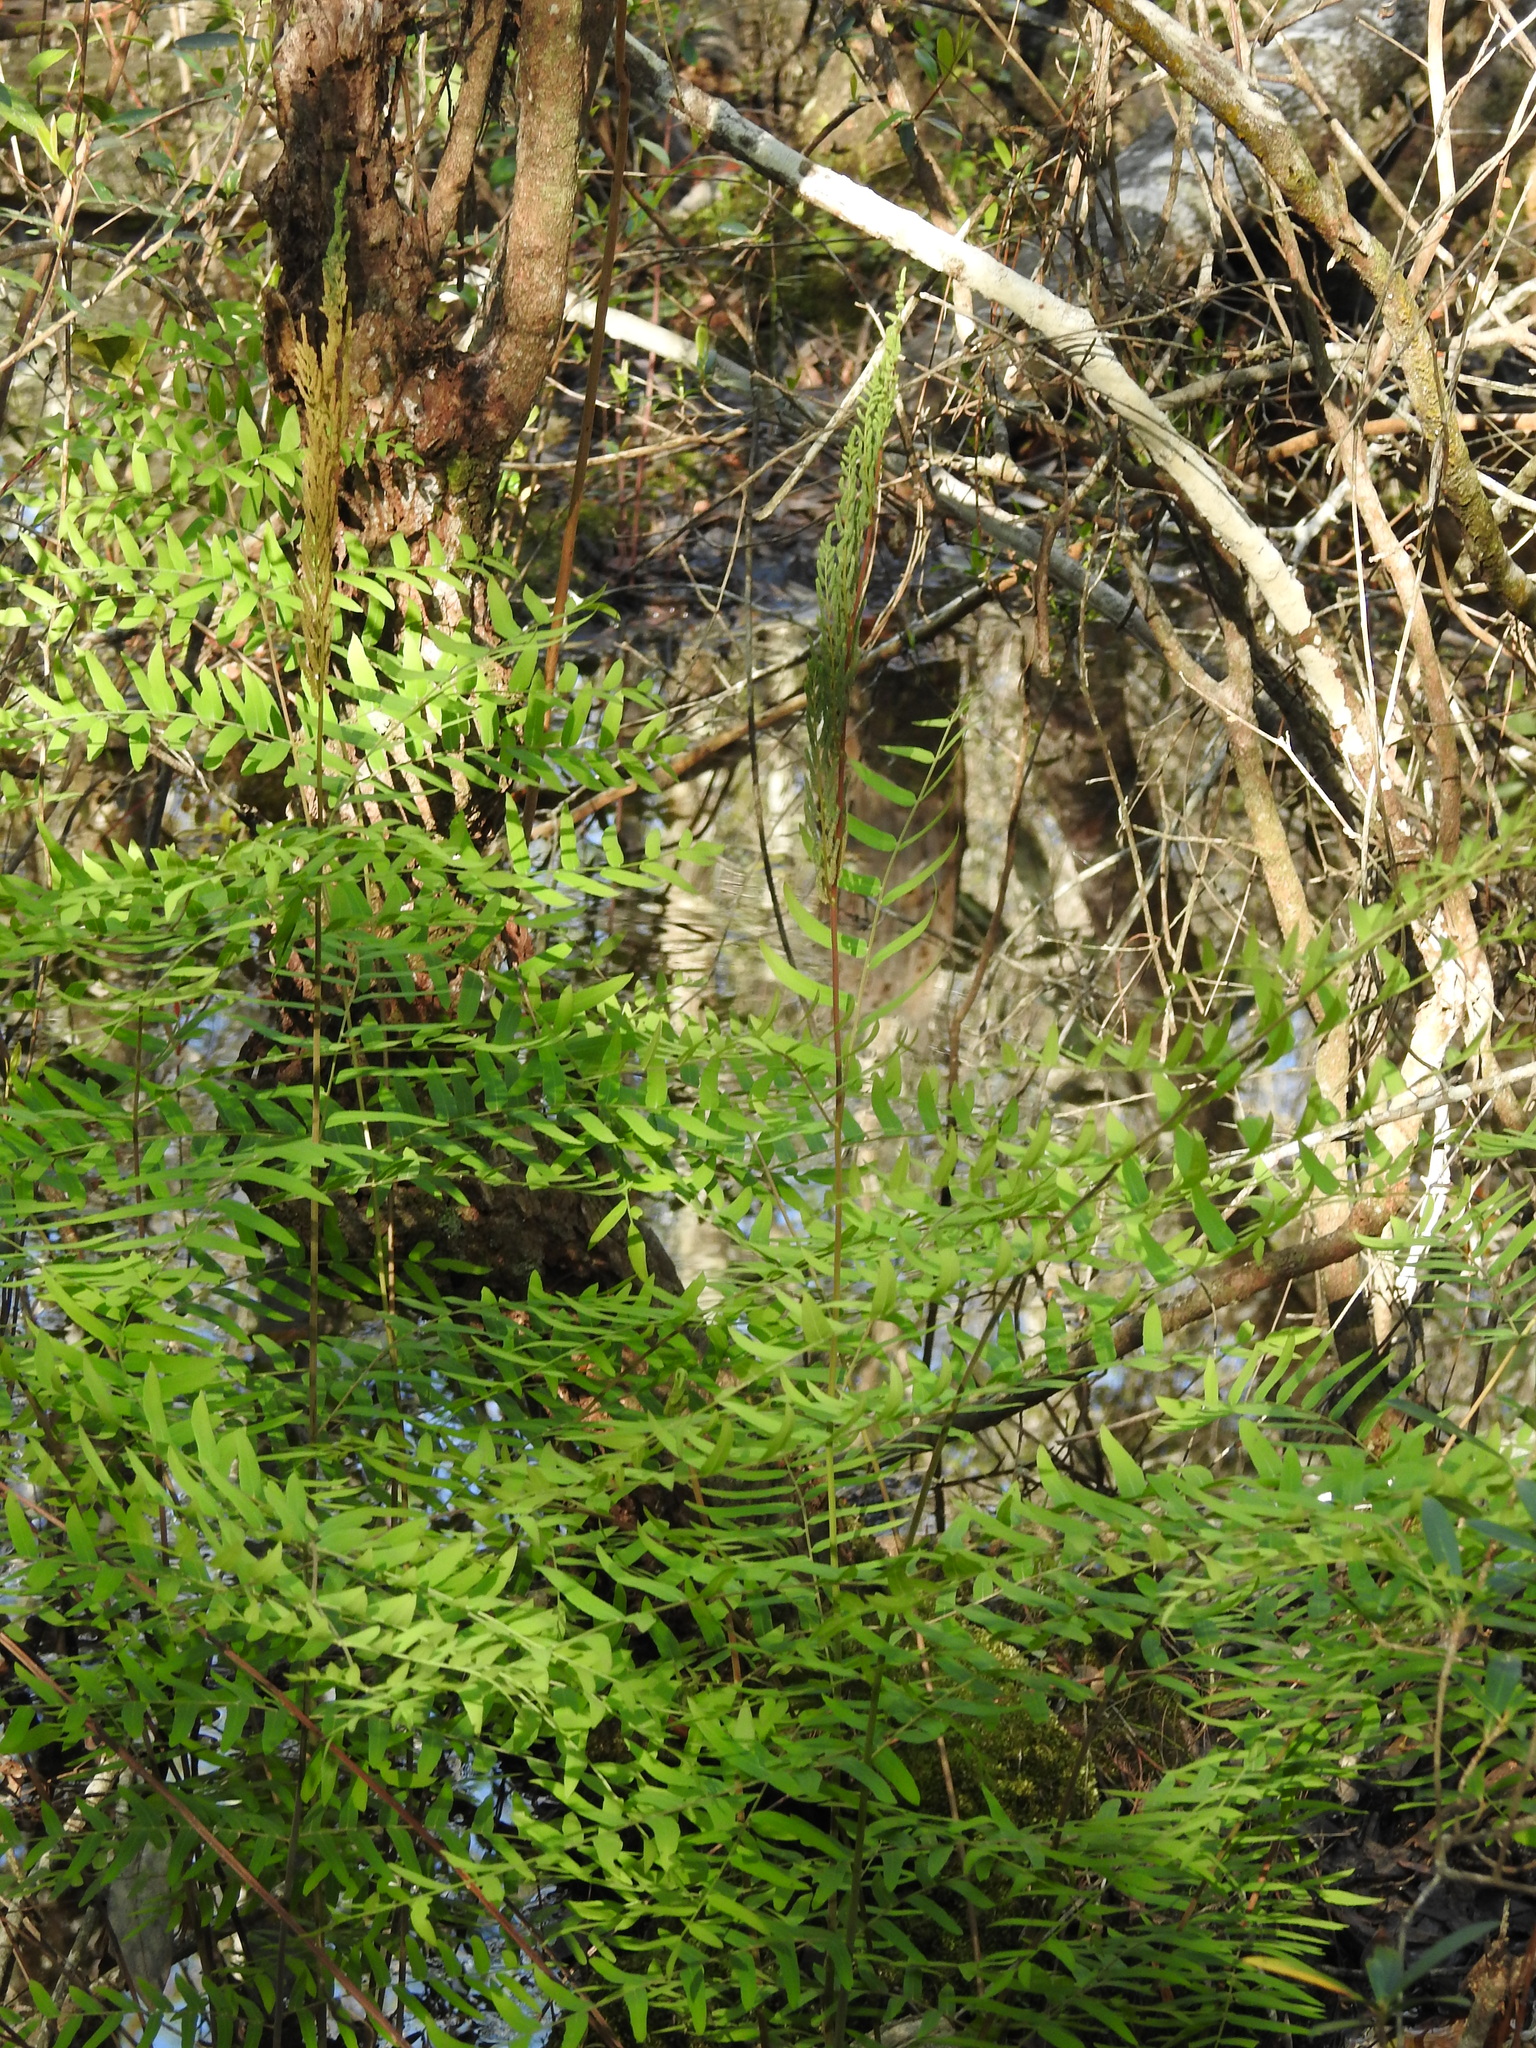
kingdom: Plantae
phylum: Tracheophyta
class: Polypodiopsida
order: Osmundales
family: Osmundaceae
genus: Osmunda
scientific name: Osmunda spectabilis
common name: American royal fern
